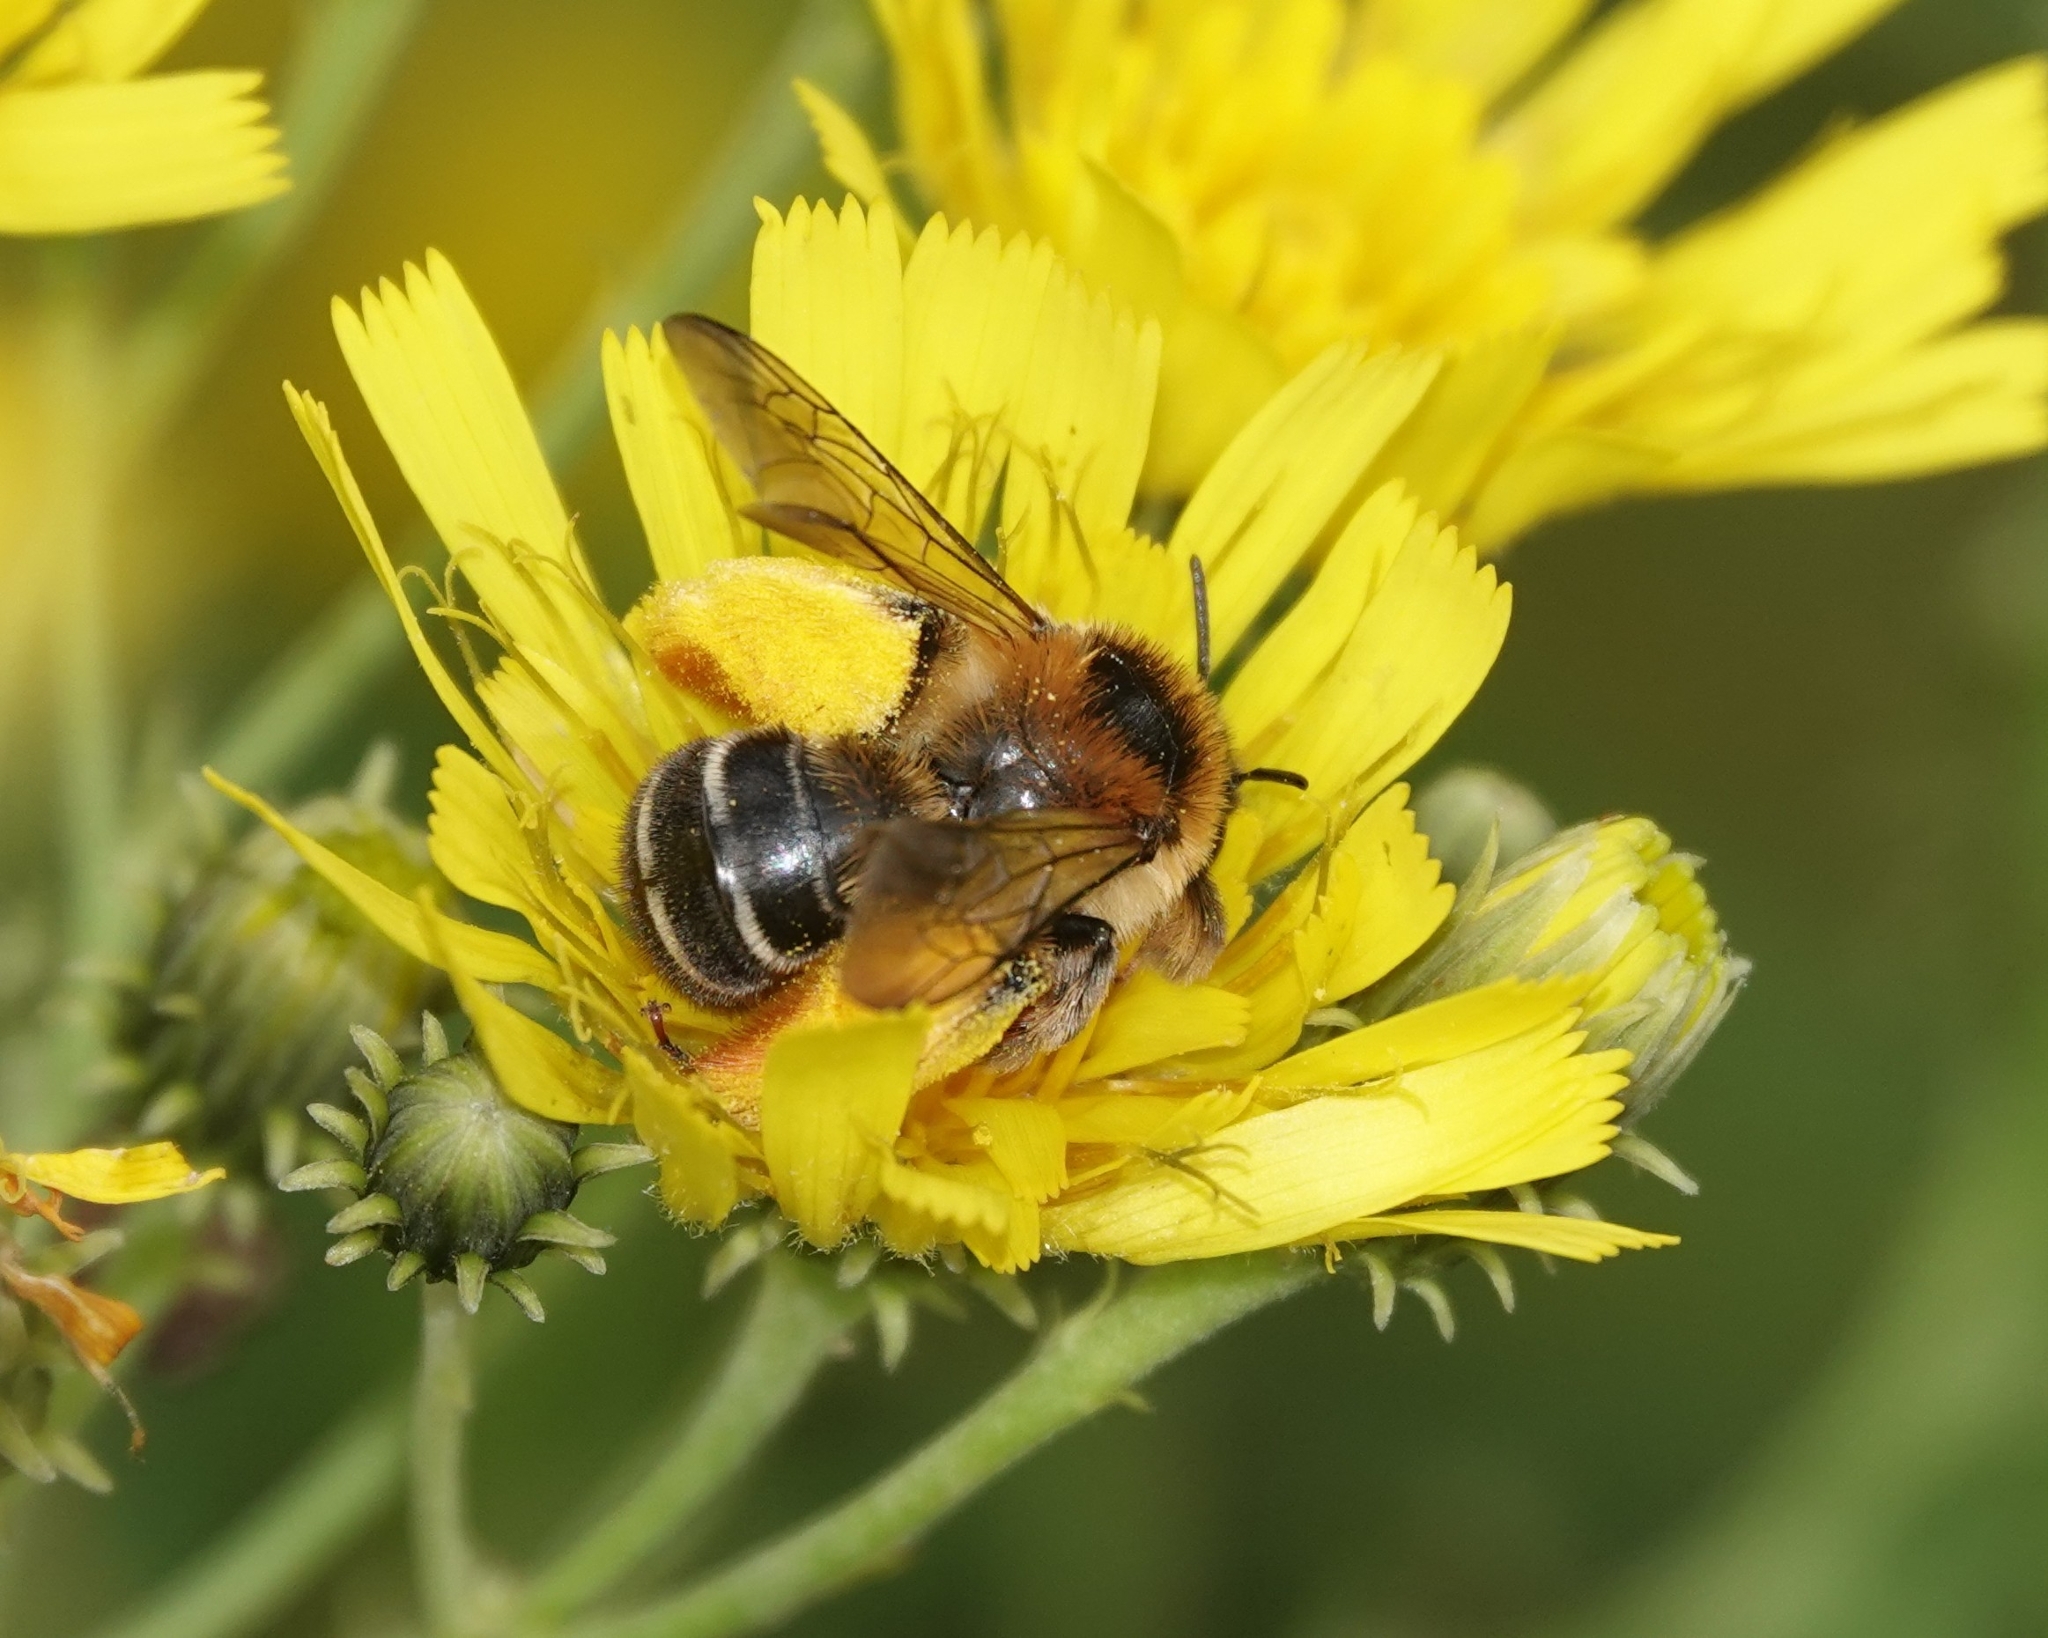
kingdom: Animalia
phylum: Arthropoda
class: Insecta
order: Hymenoptera
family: Melittidae
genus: Dasypoda
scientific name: Dasypoda hirtipes
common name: Pantaloon bee
